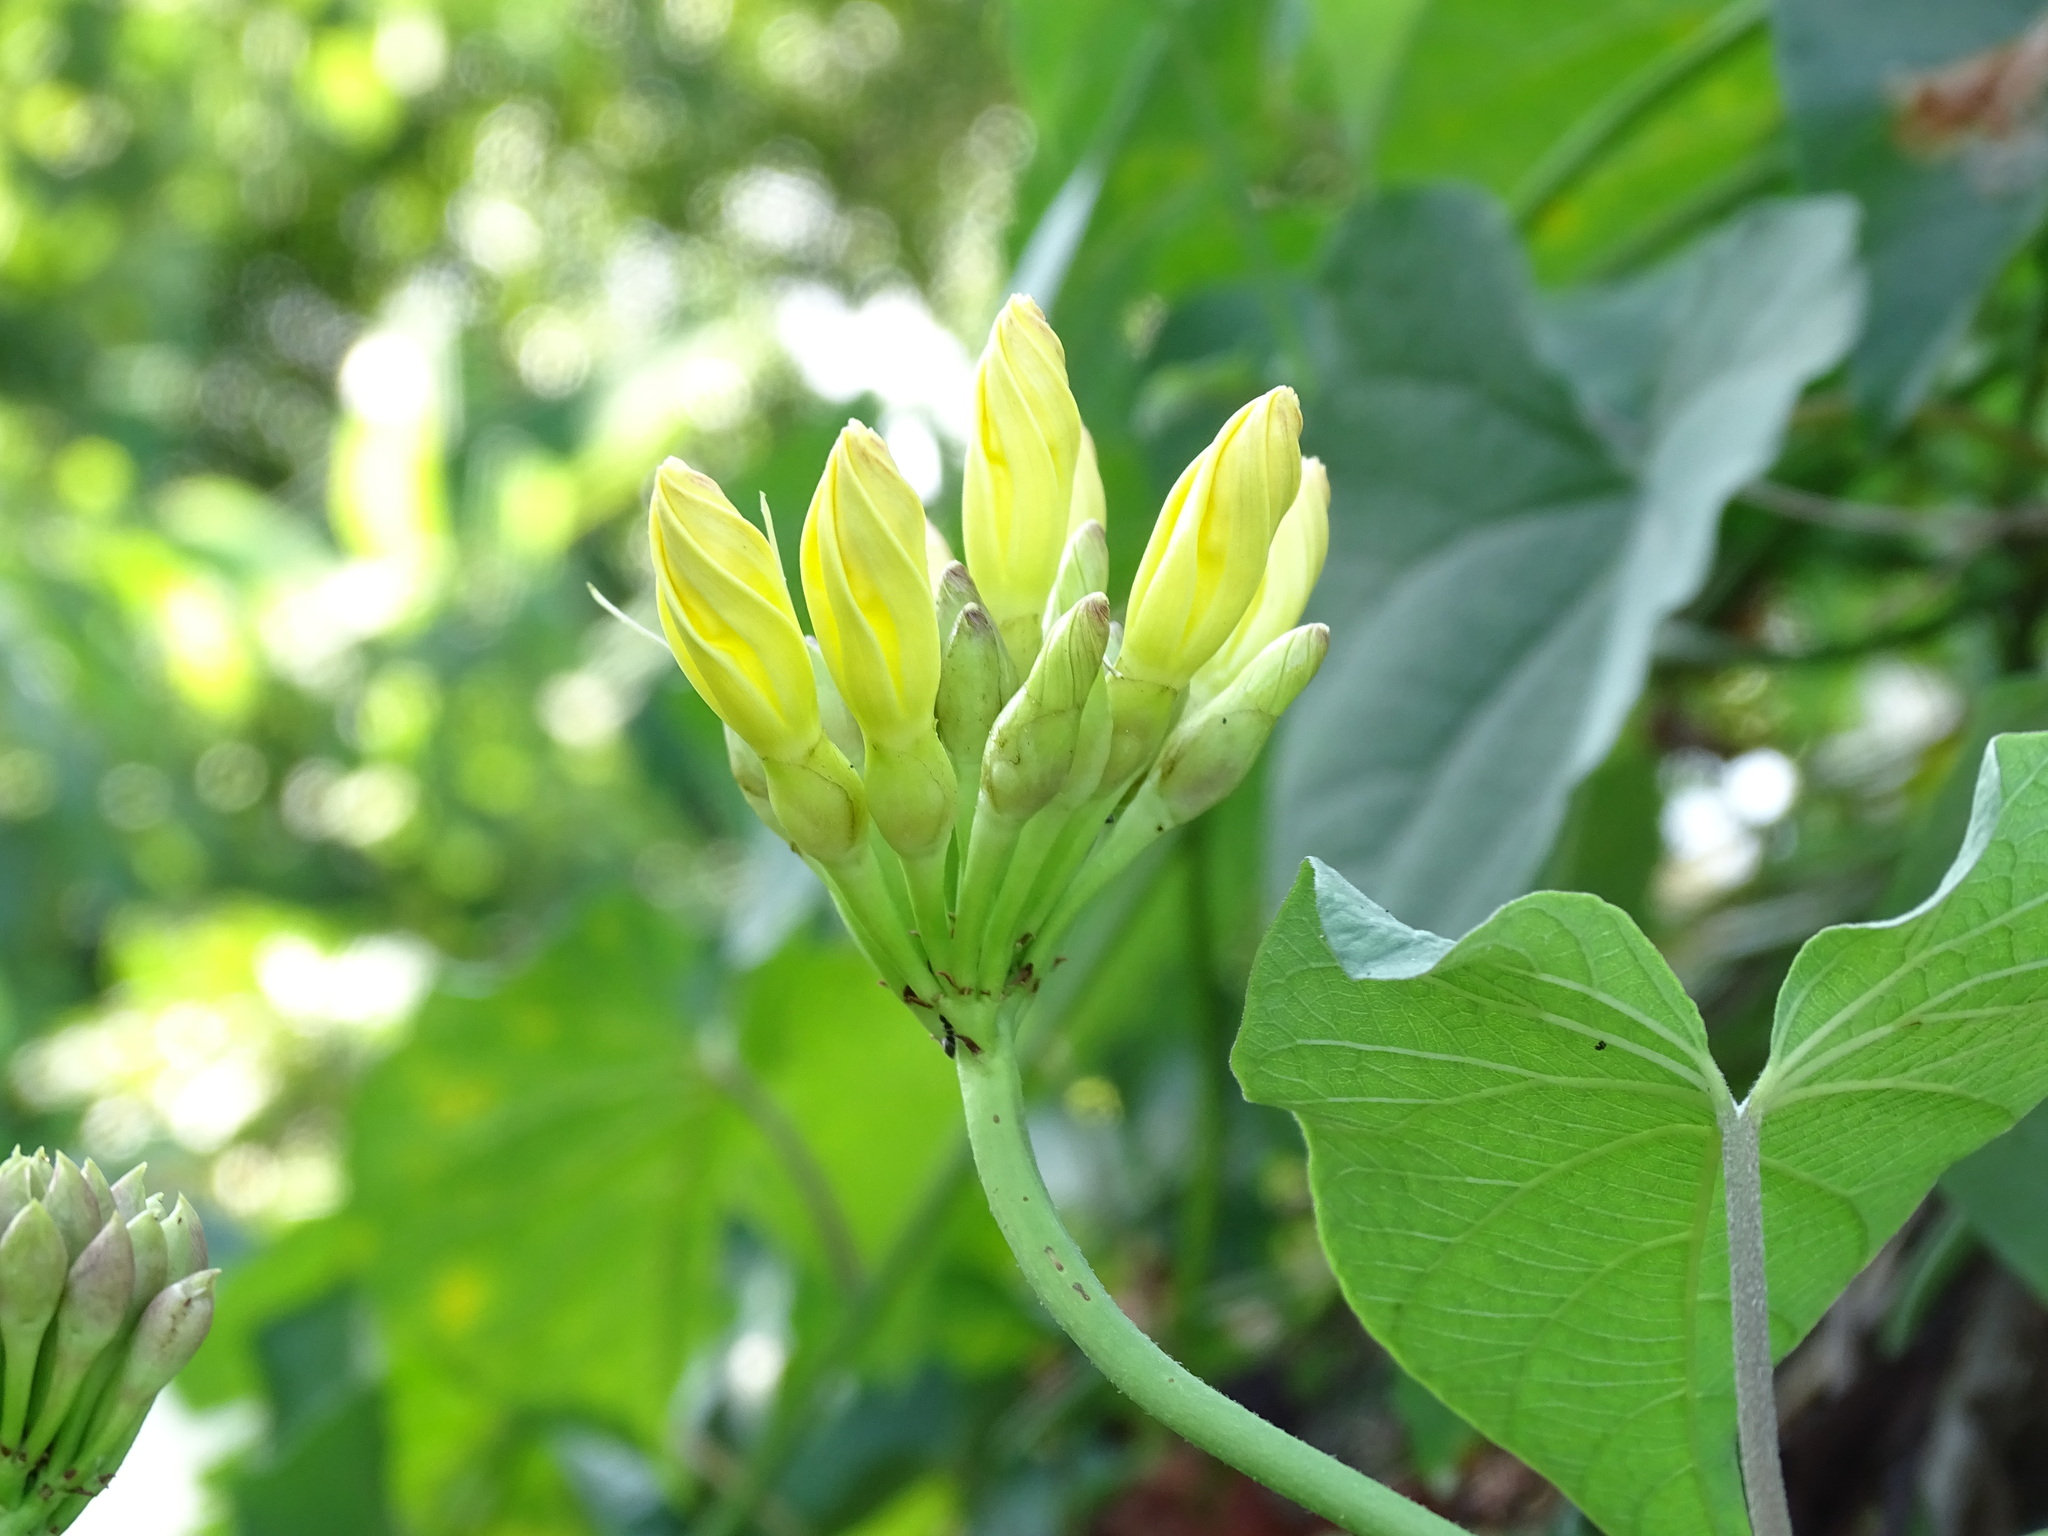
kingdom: Plantae
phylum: Tracheophyta
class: Magnoliopsida
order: Solanales
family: Convolvulaceae
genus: Camonea
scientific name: Camonea umbellata
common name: Hogvine
